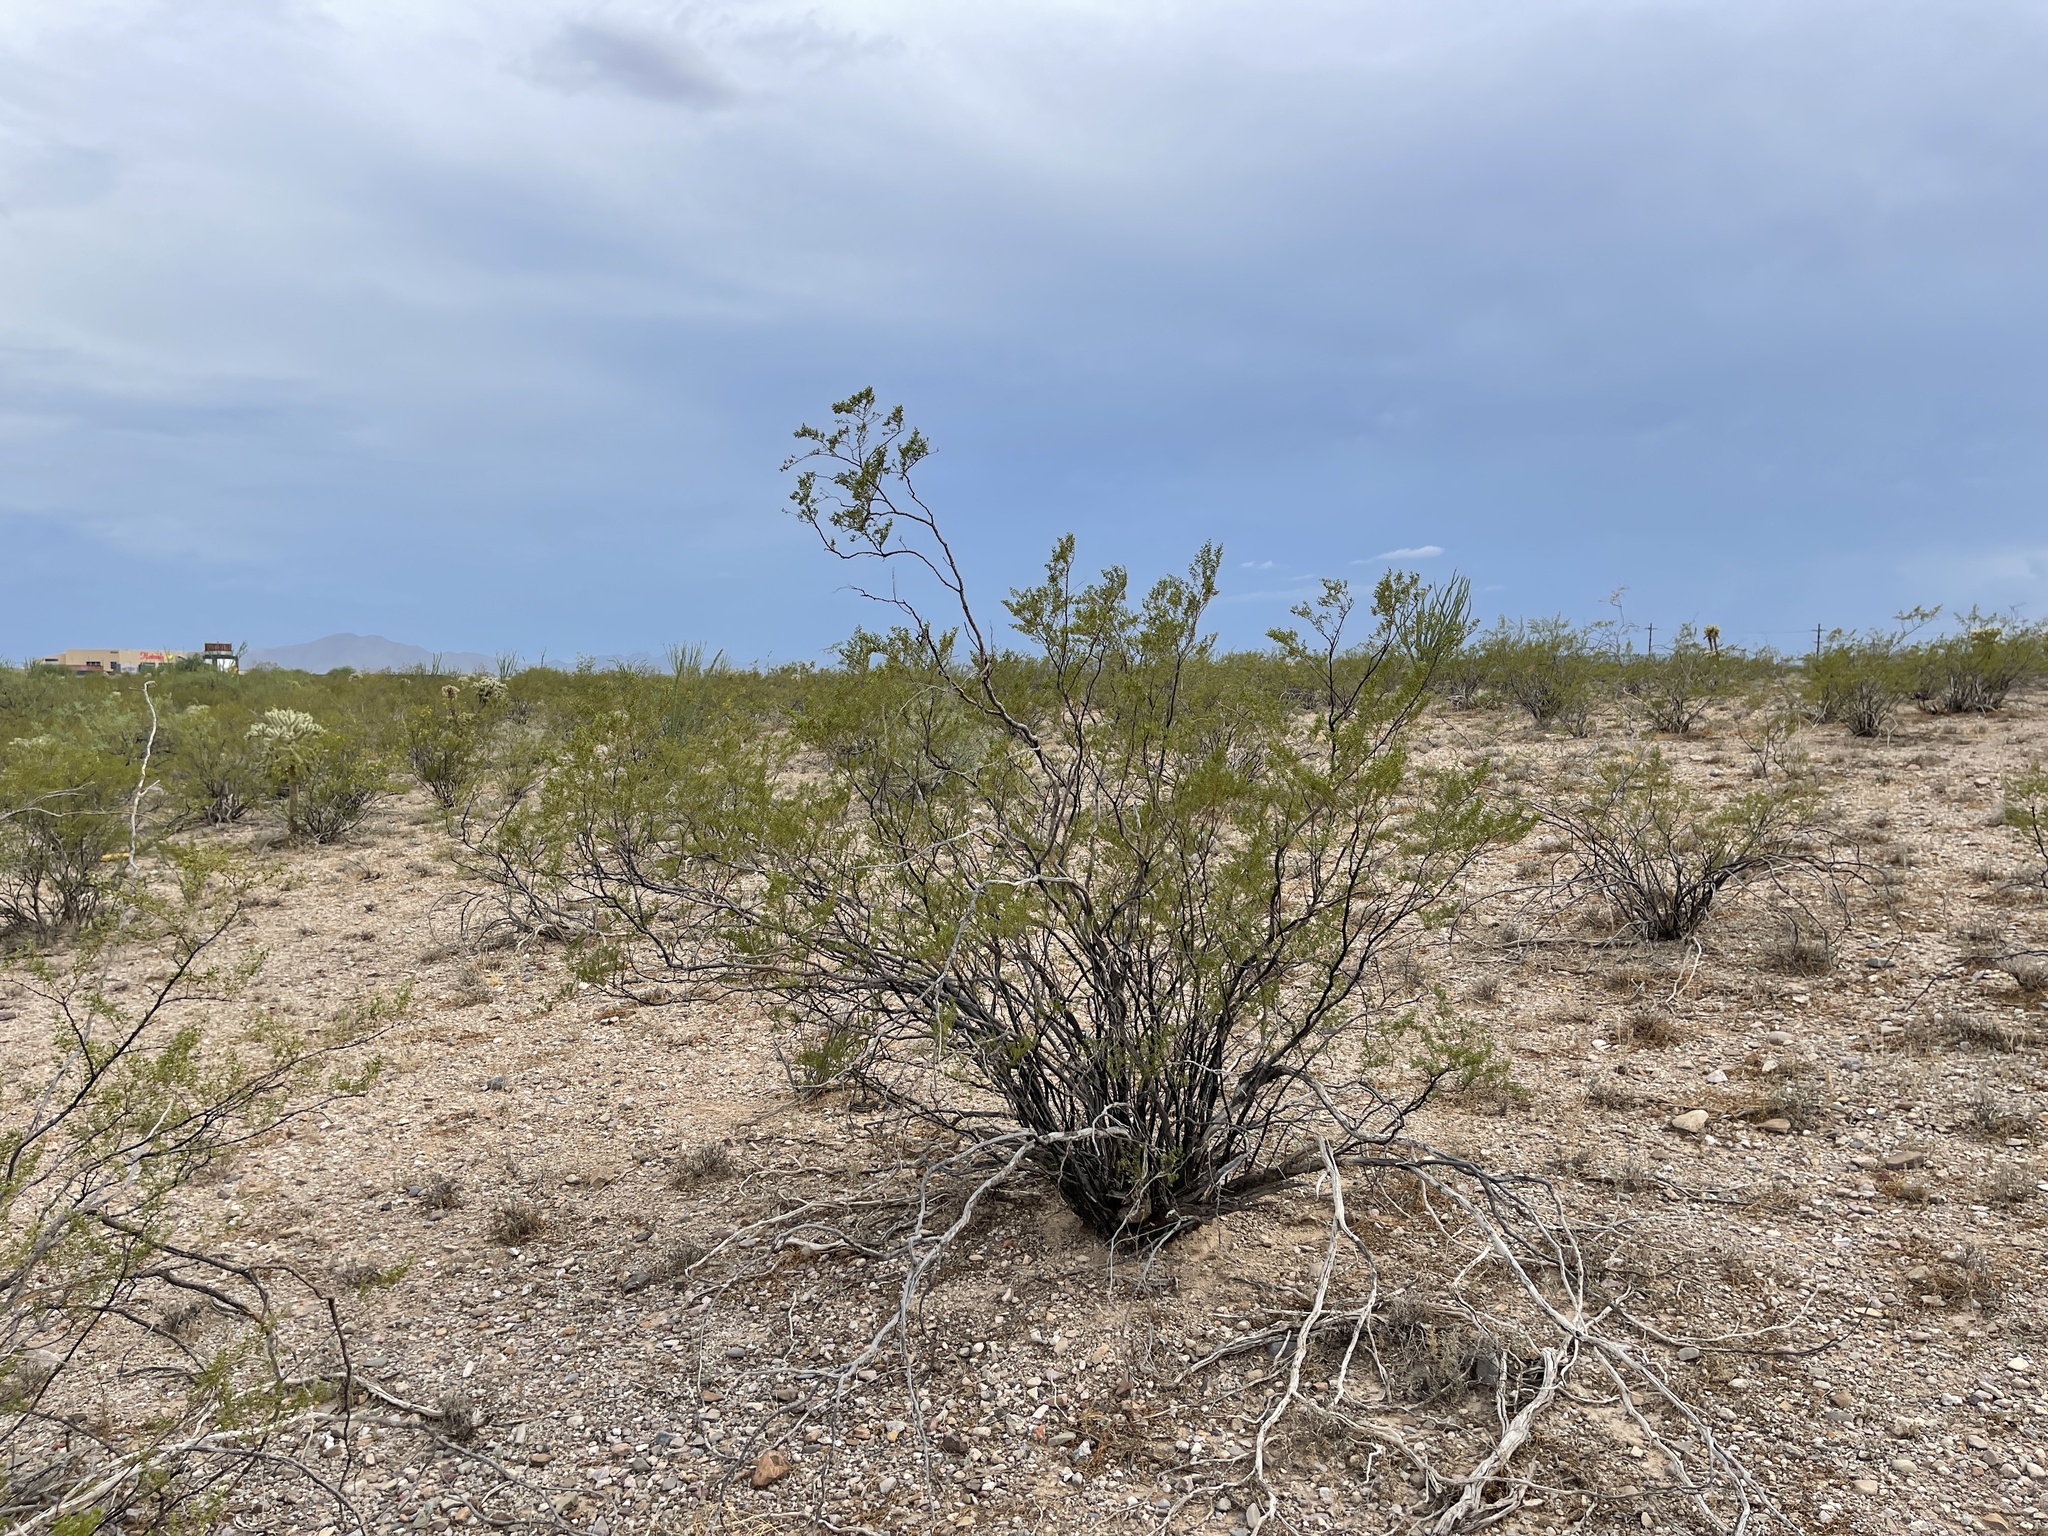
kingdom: Plantae
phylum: Tracheophyta
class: Magnoliopsida
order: Zygophyllales
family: Zygophyllaceae
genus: Larrea
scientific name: Larrea tridentata
